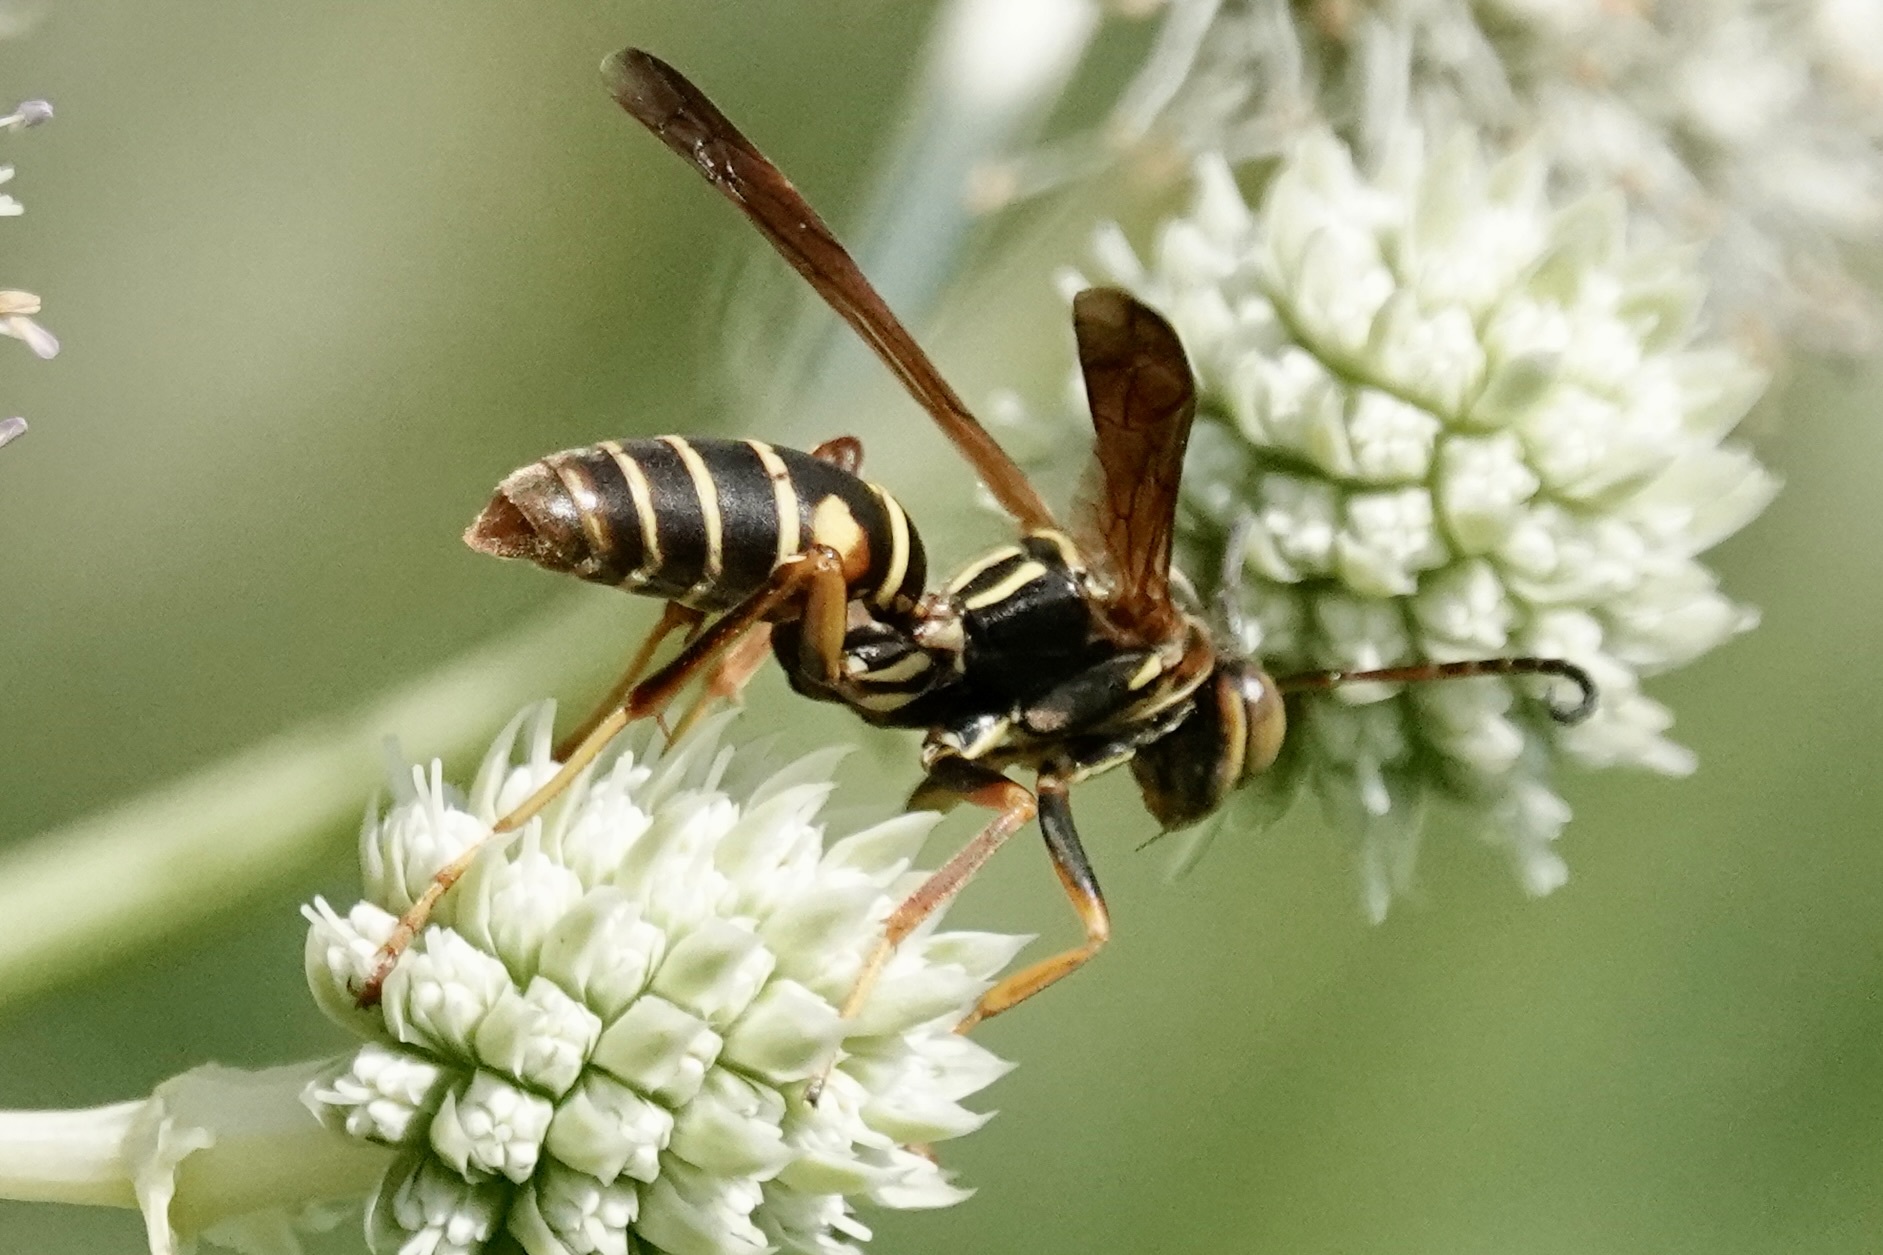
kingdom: Animalia
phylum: Arthropoda
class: Insecta
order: Hymenoptera
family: Eumenidae
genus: Polistes
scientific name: Polistes fuscatus
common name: Dark paper wasp
